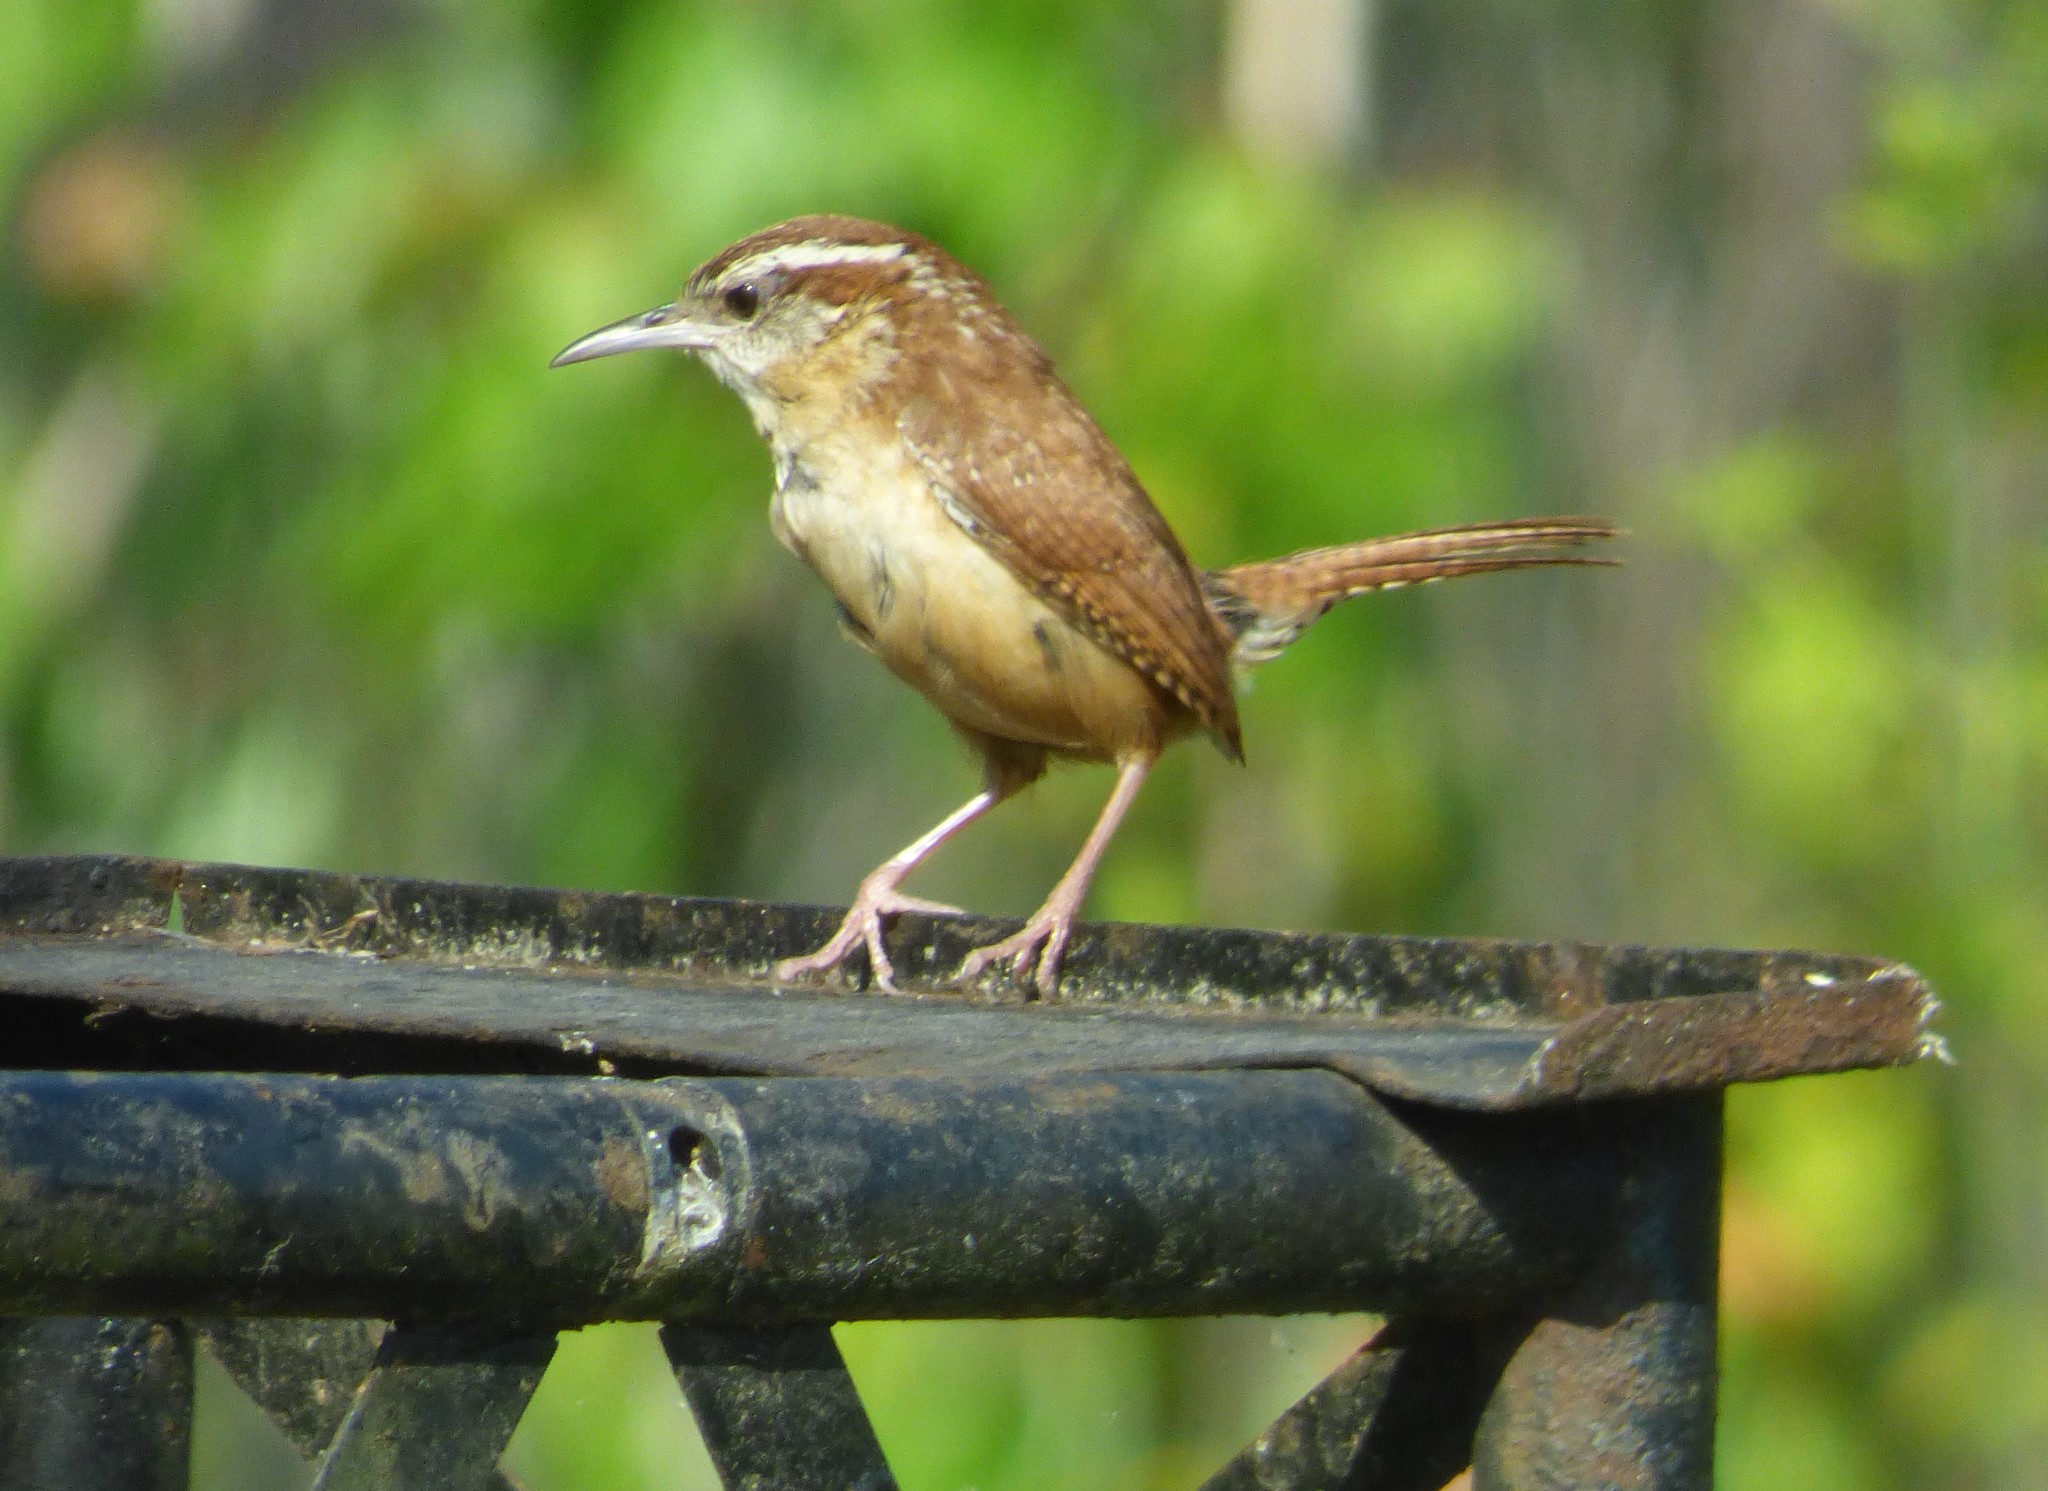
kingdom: Animalia
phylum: Chordata
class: Aves
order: Passeriformes
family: Troglodytidae
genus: Thryothorus
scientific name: Thryothorus ludovicianus
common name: Carolina wren
